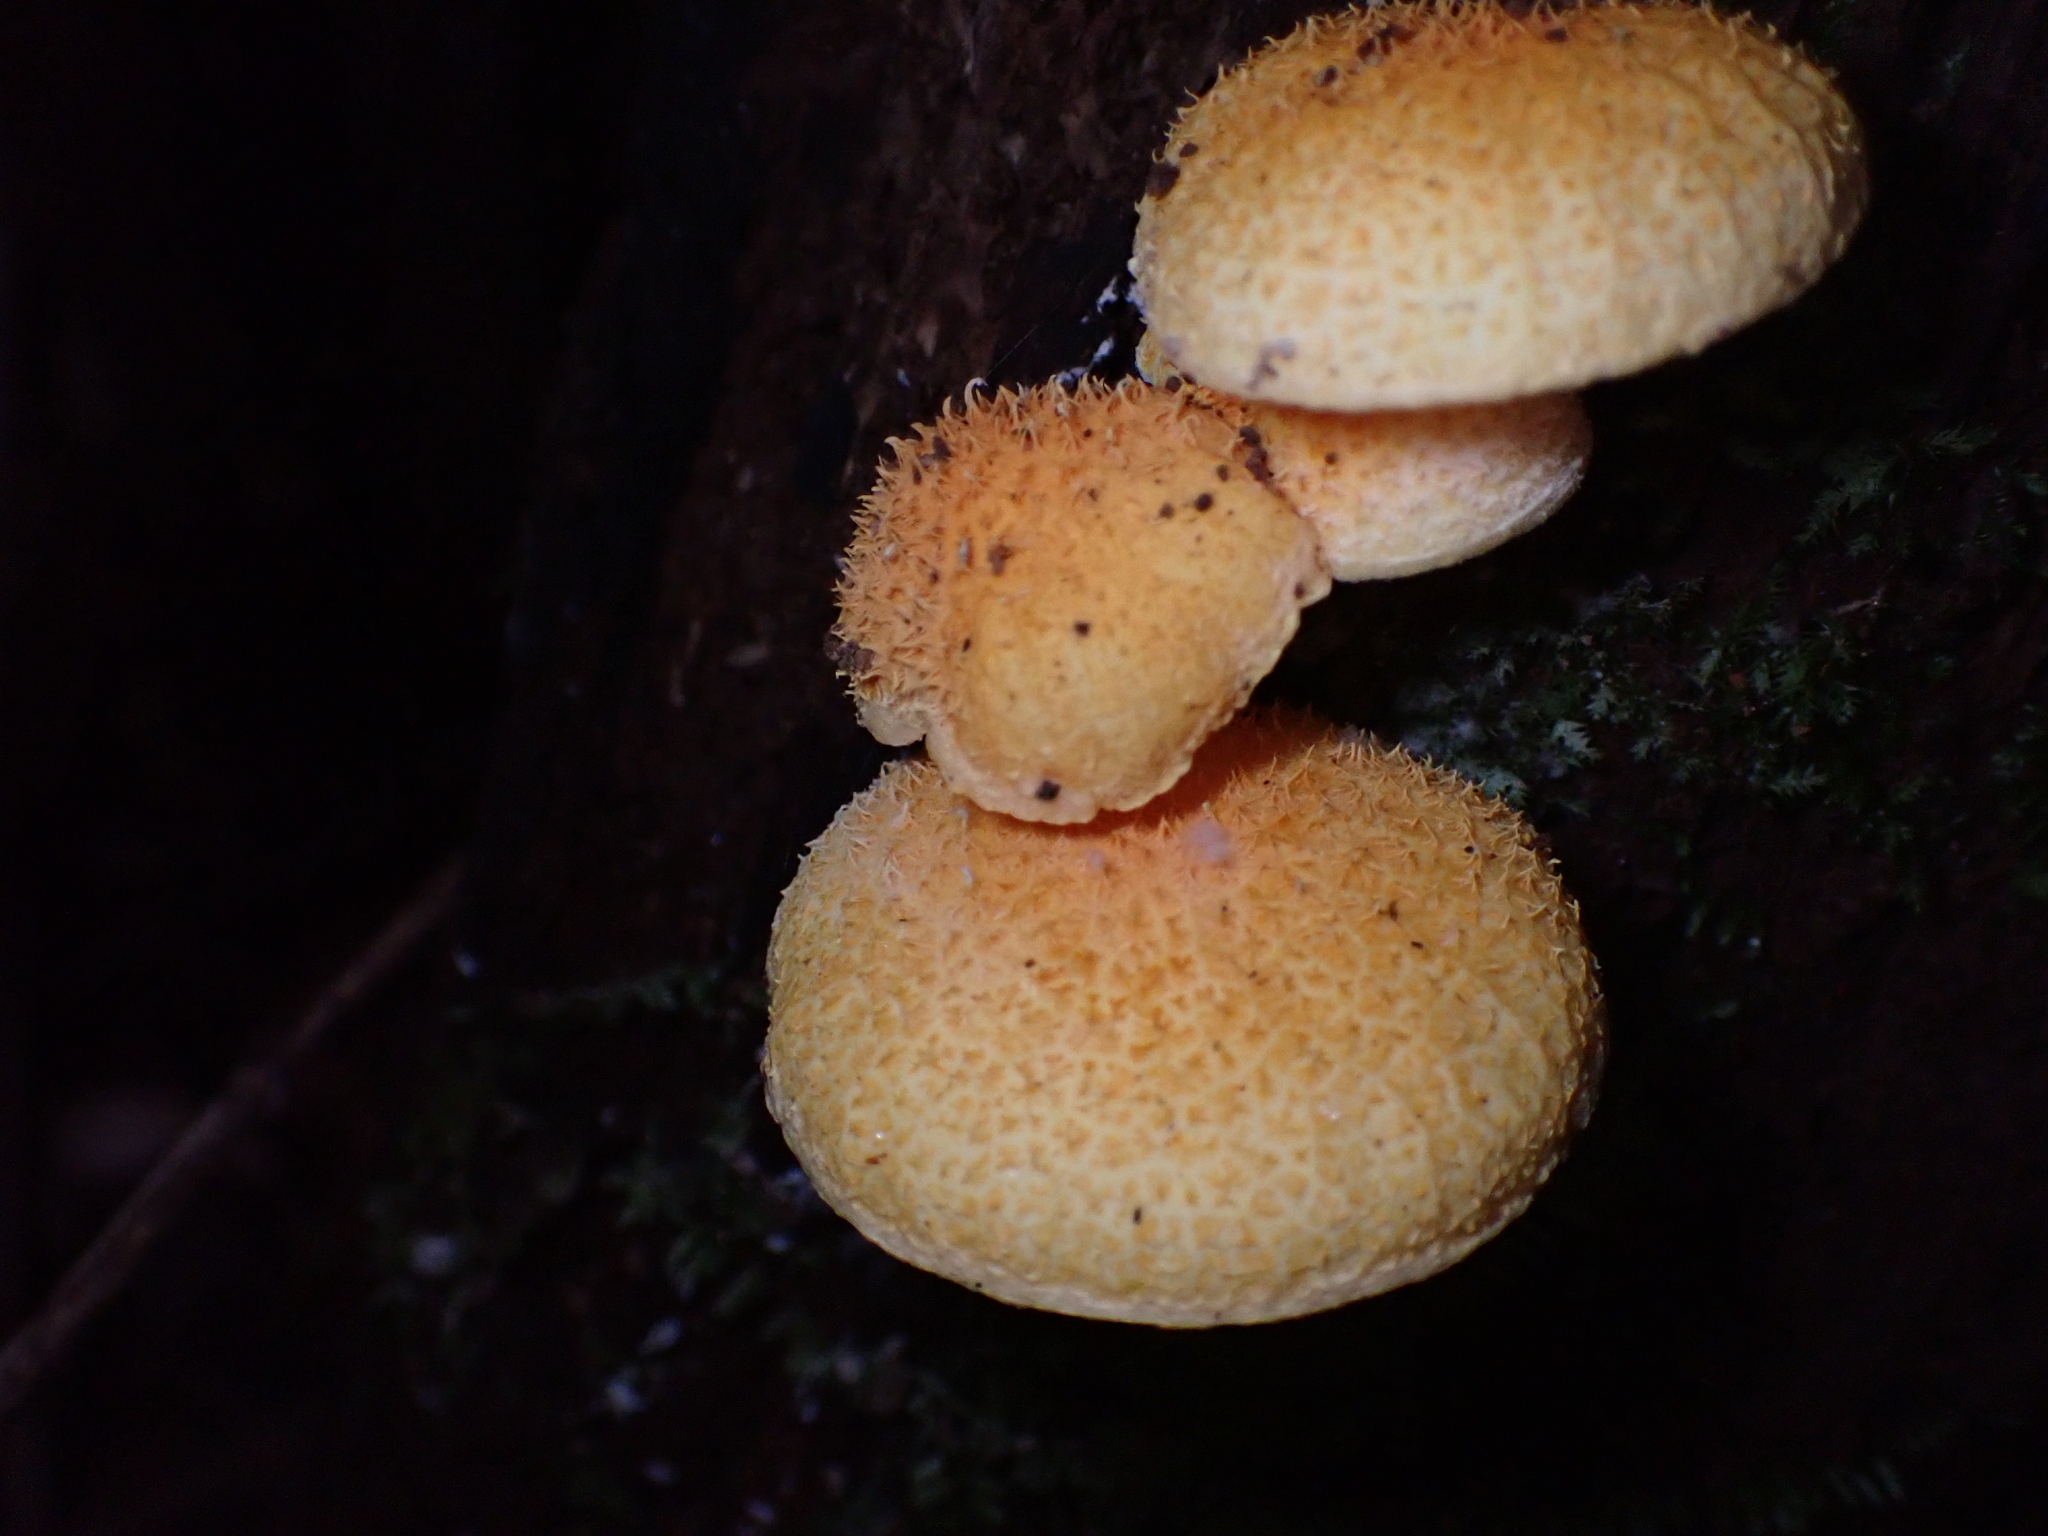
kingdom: Fungi
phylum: Basidiomycota
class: Agaricomycetes
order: Agaricales
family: Physalacriaceae
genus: Cyptotrama
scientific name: Cyptotrama asprata
